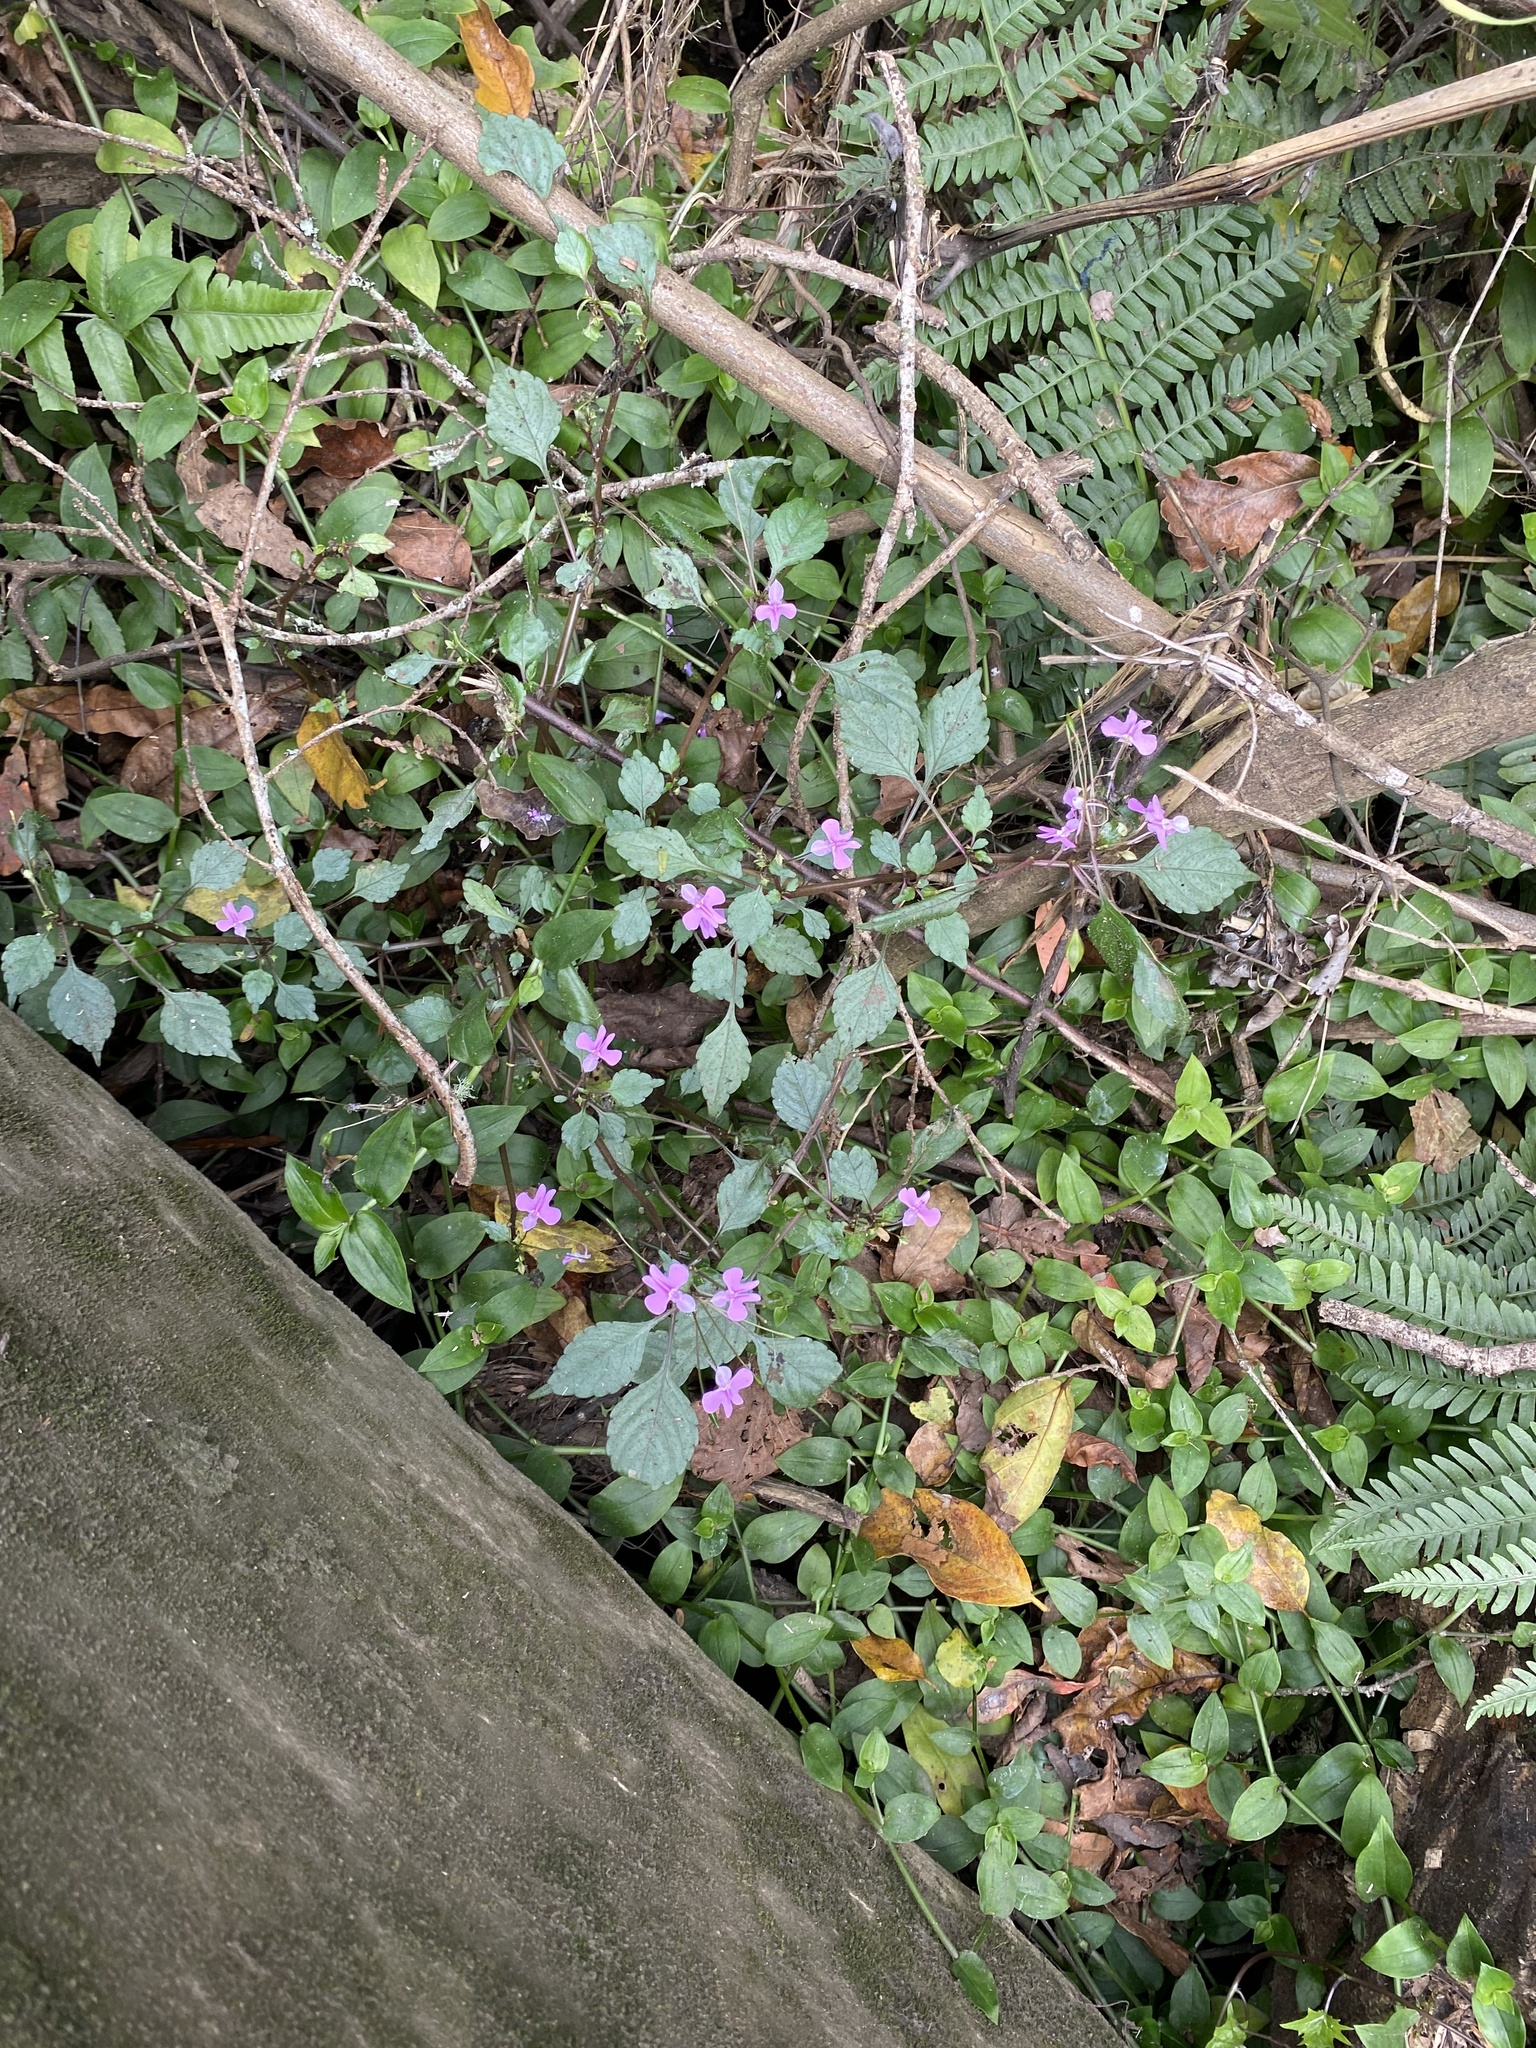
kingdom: Plantae
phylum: Tracheophyta
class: Magnoliopsida
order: Ericales
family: Balsaminaceae
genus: Impatiens
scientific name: Impatiens hochstetteri
